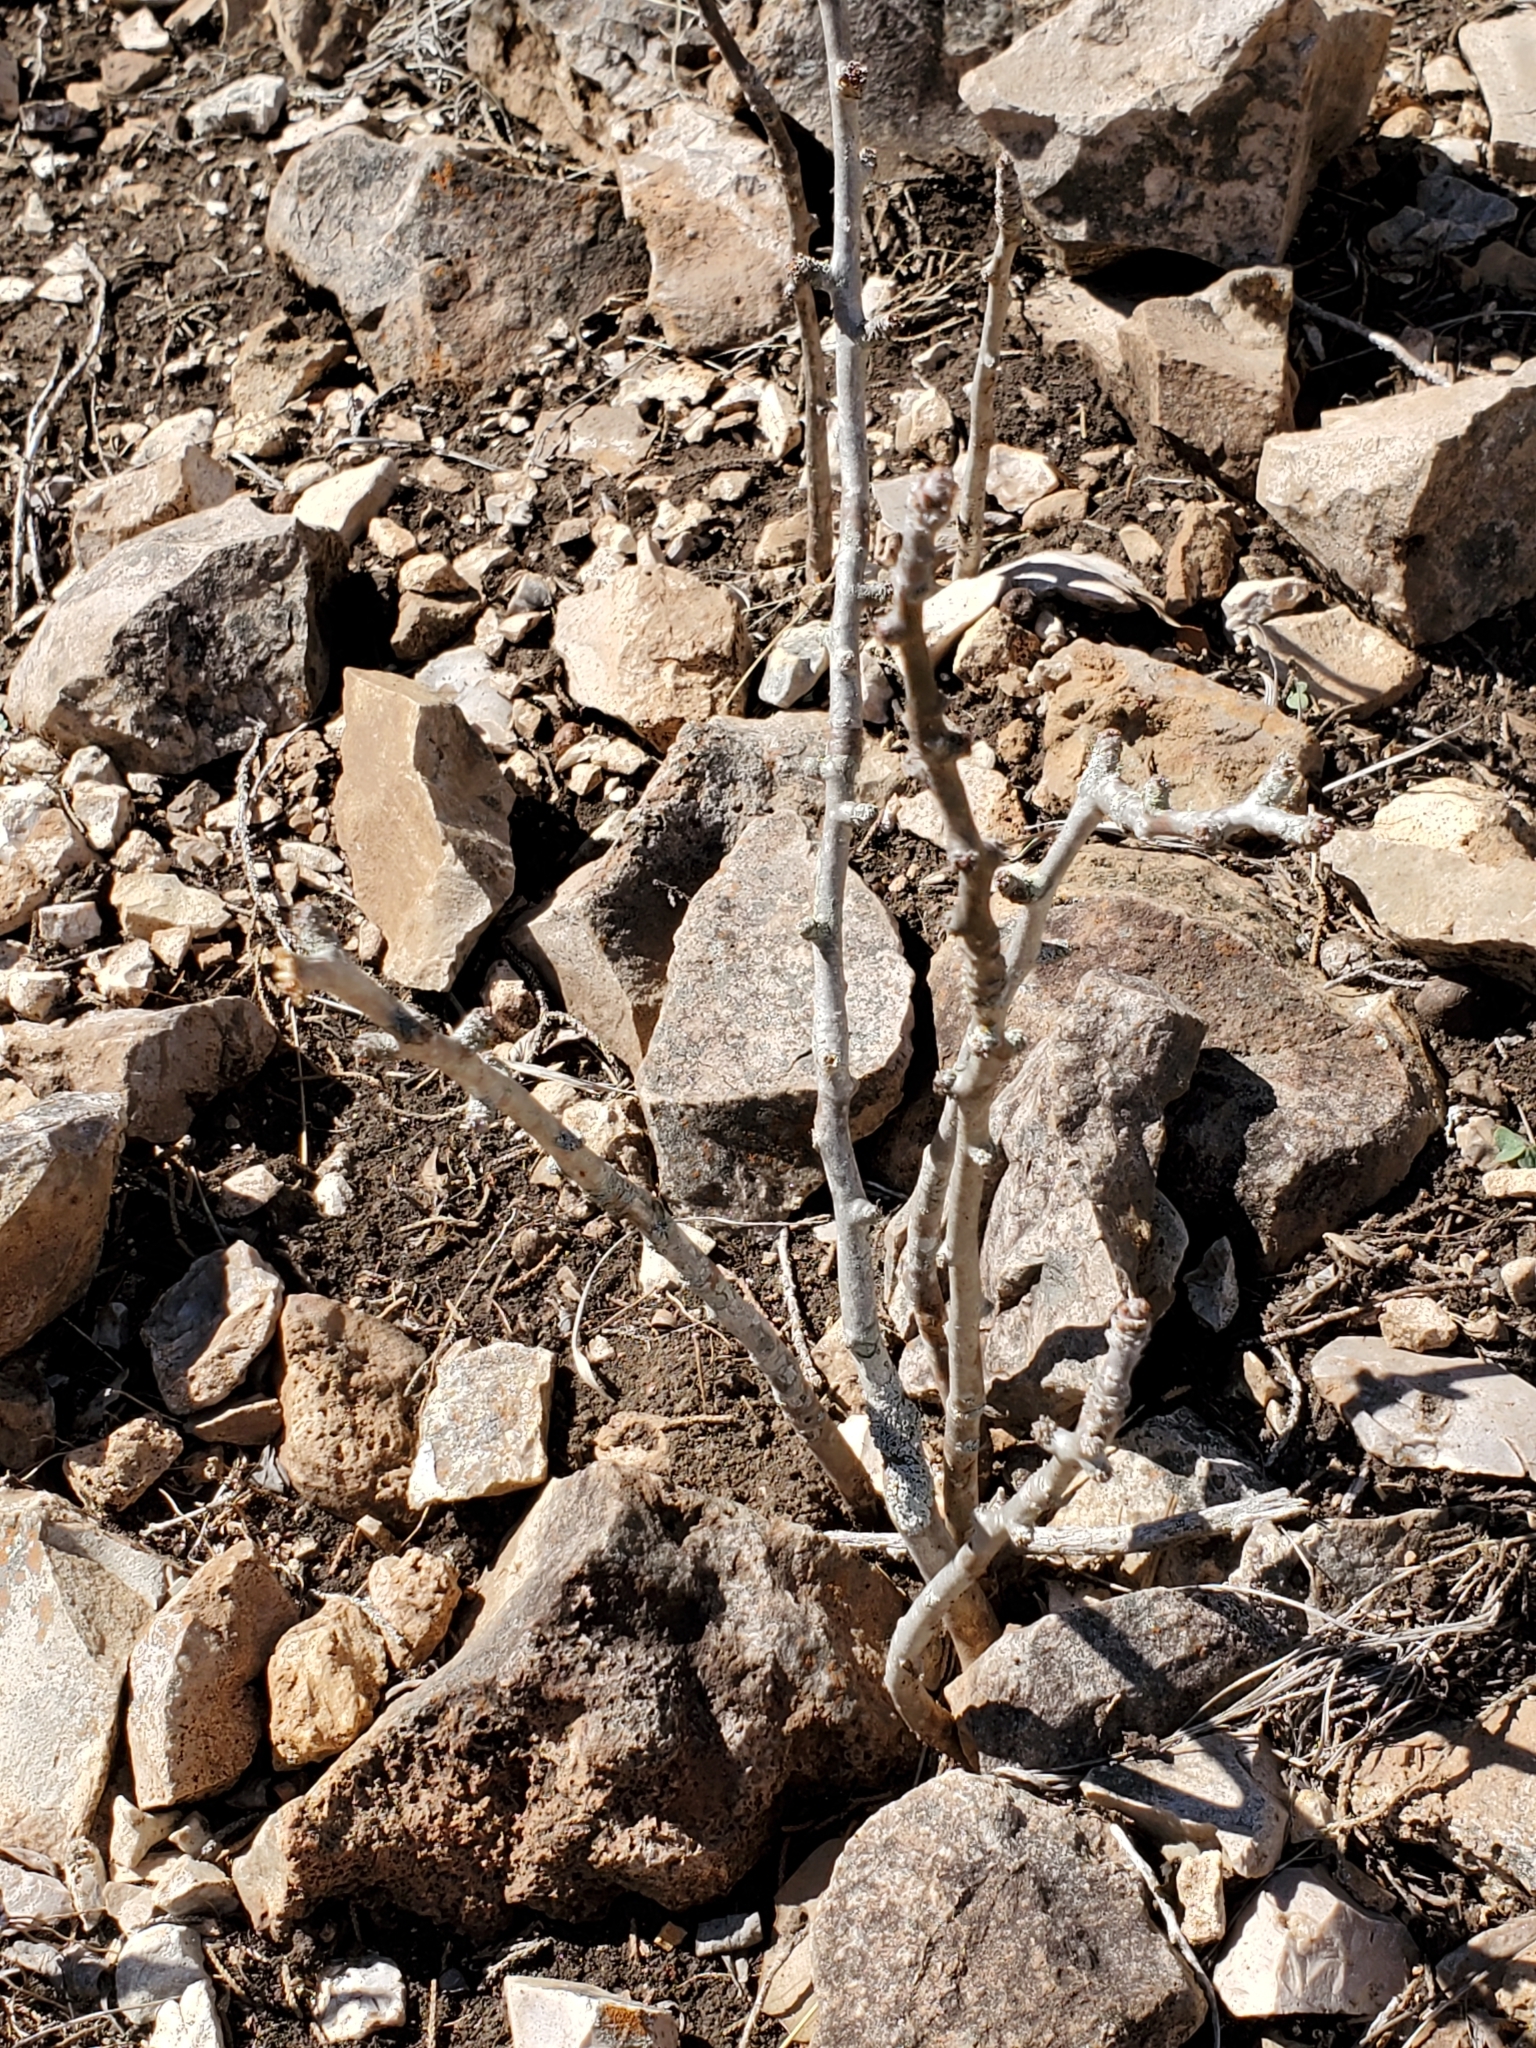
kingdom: Plantae
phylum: Tracheophyta
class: Magnoliopsida
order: Malpighiales
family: Euphorbiaceae
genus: Jatropha
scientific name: Jatropha dioica
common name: Leatherstem
